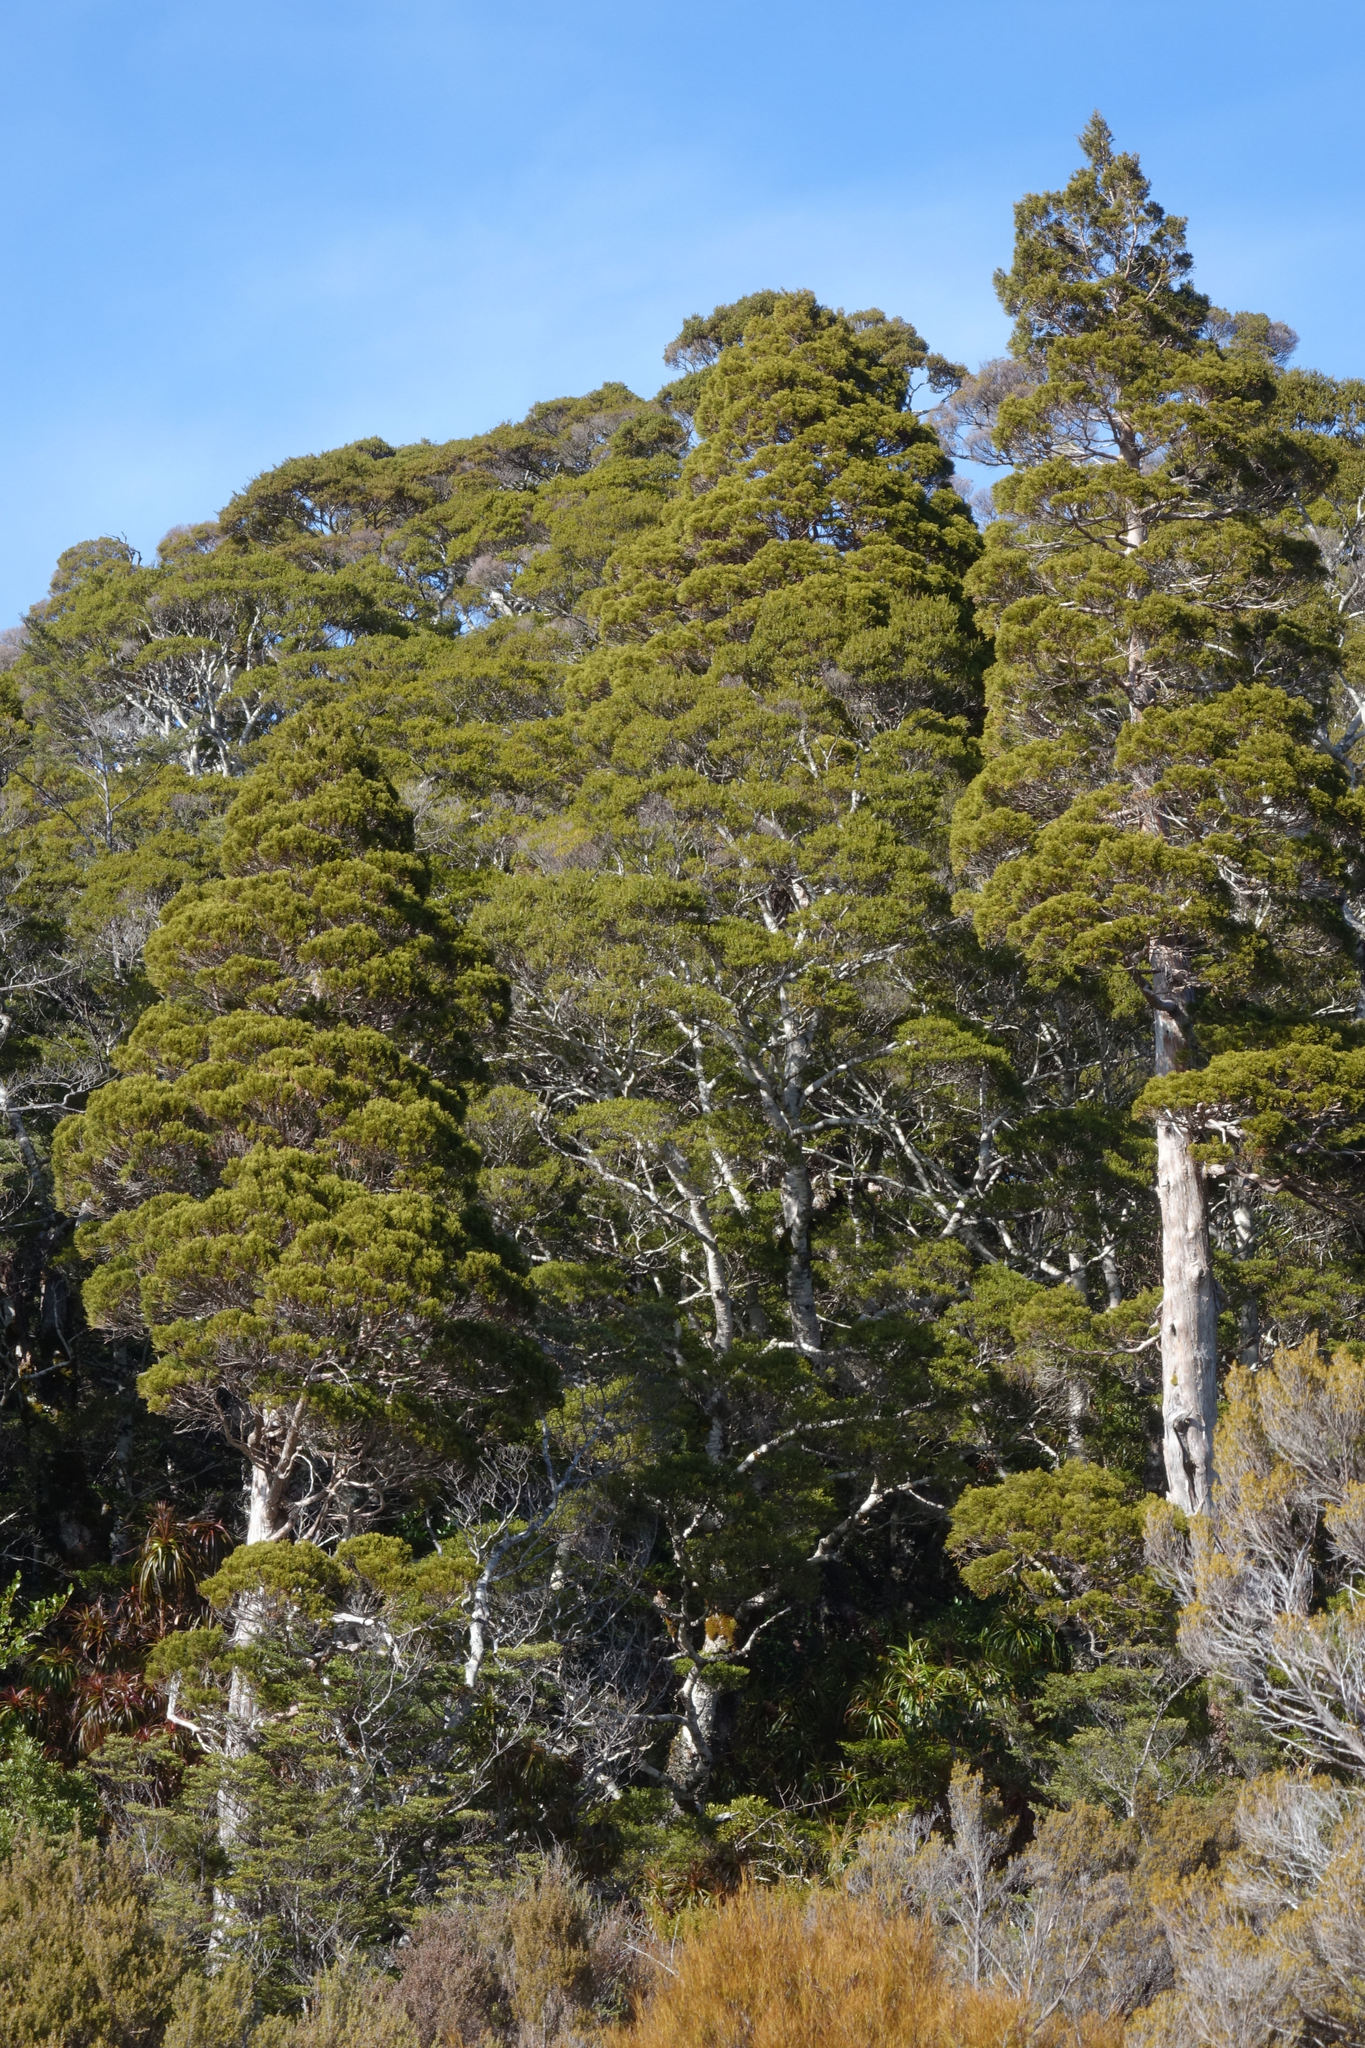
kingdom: Plantae
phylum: Tracheophyta
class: Pinopsida
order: Pinales
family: Cupressaceae
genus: Libocedrus
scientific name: Libocedrus bidwillii
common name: Cedar
